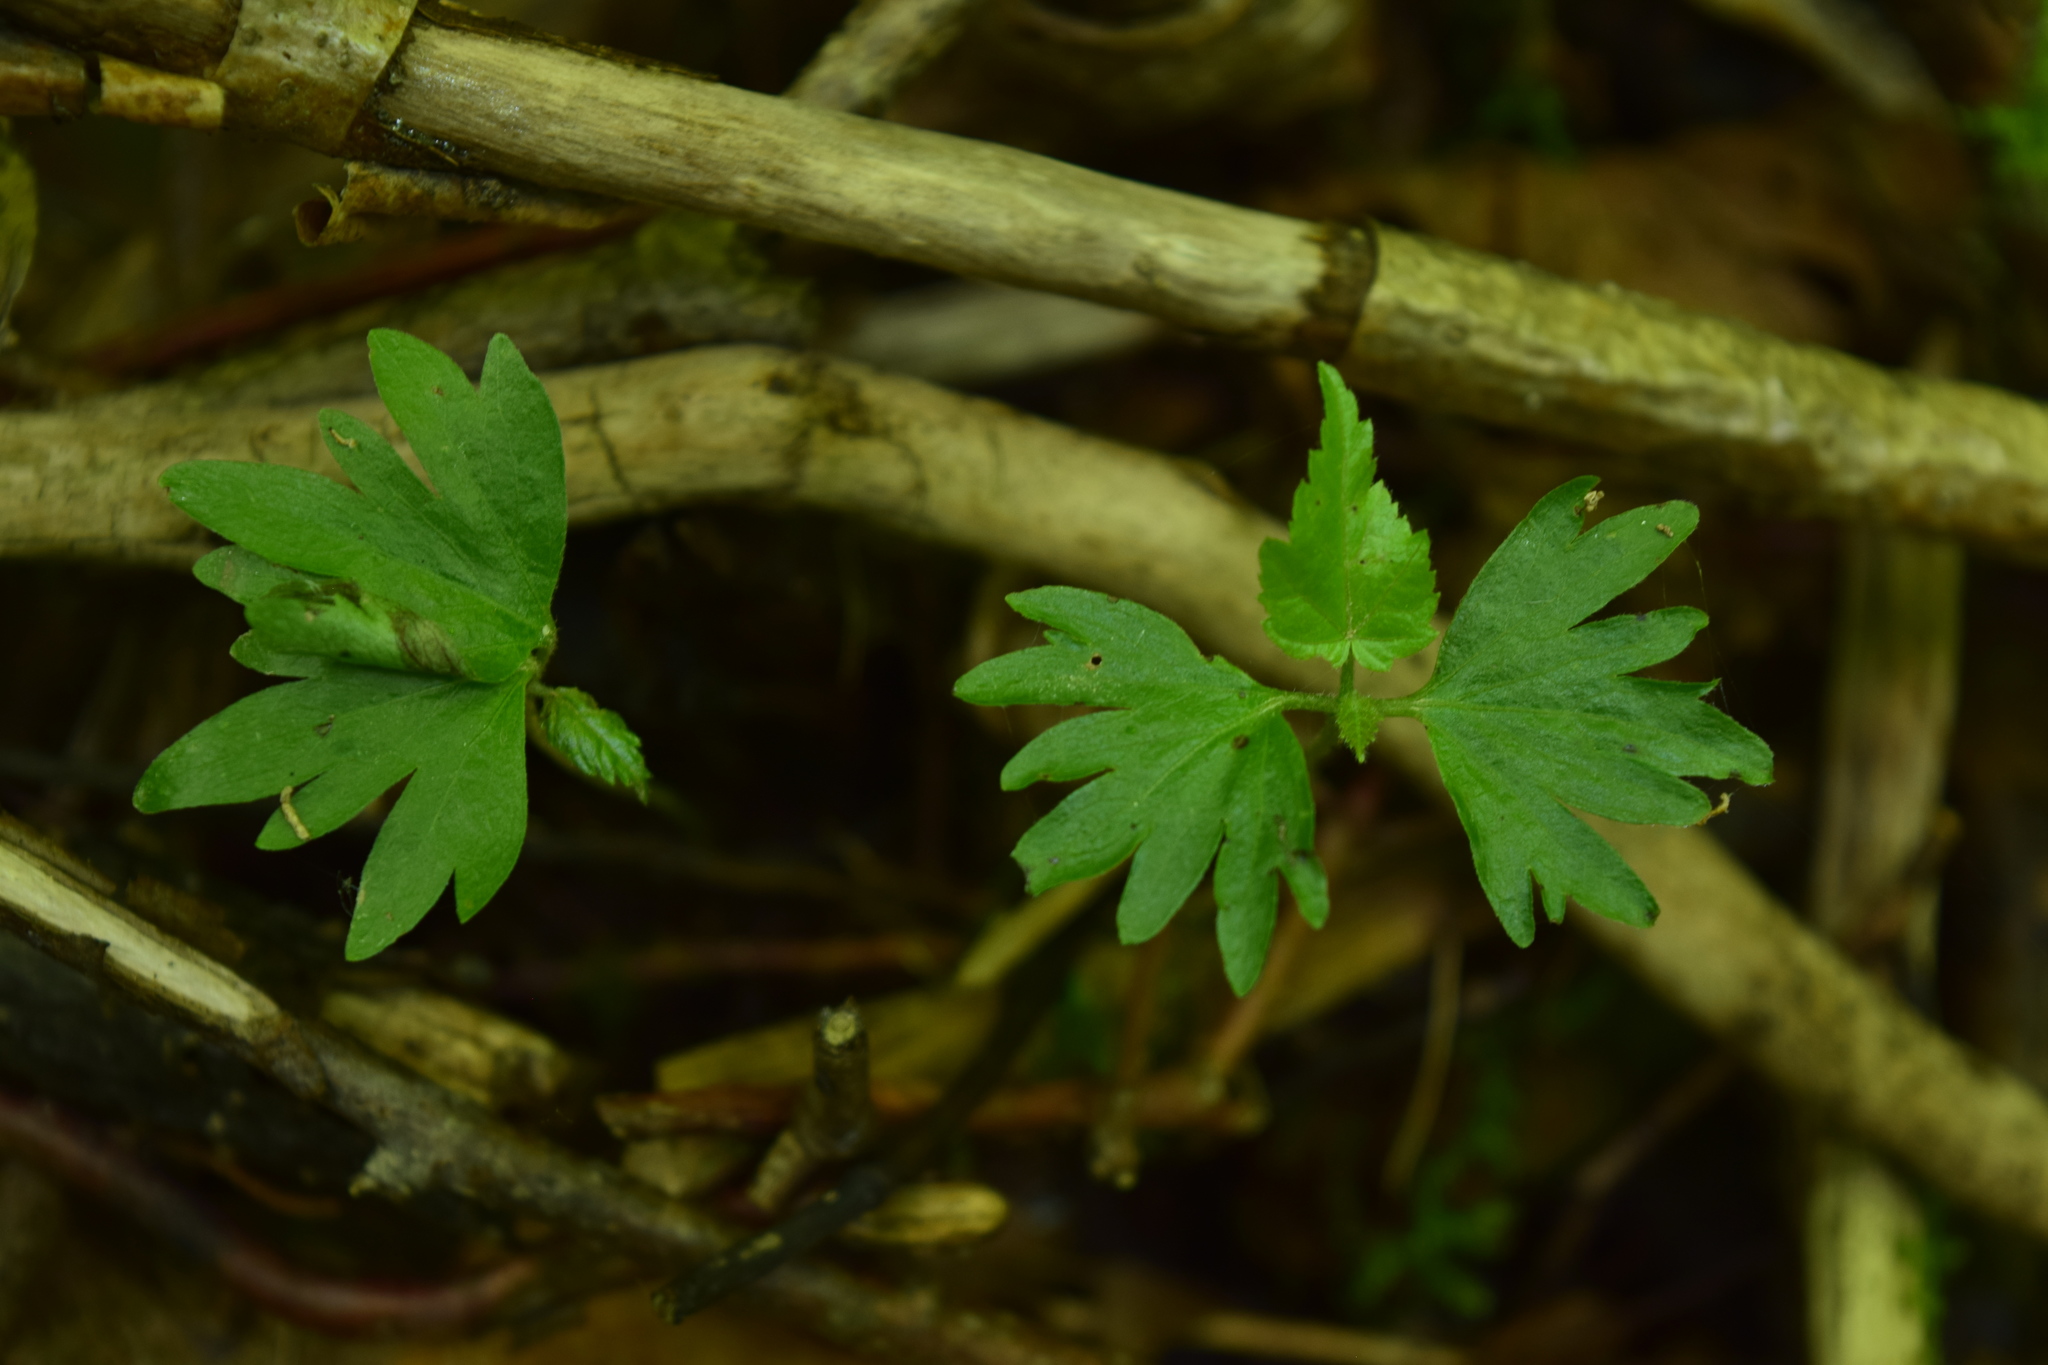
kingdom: Plantae
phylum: Tracheophyta
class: Magnoliopsida
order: Malvales
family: Malvaceae
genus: Tilia
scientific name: Tilia cordata
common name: Small-leaved lime
